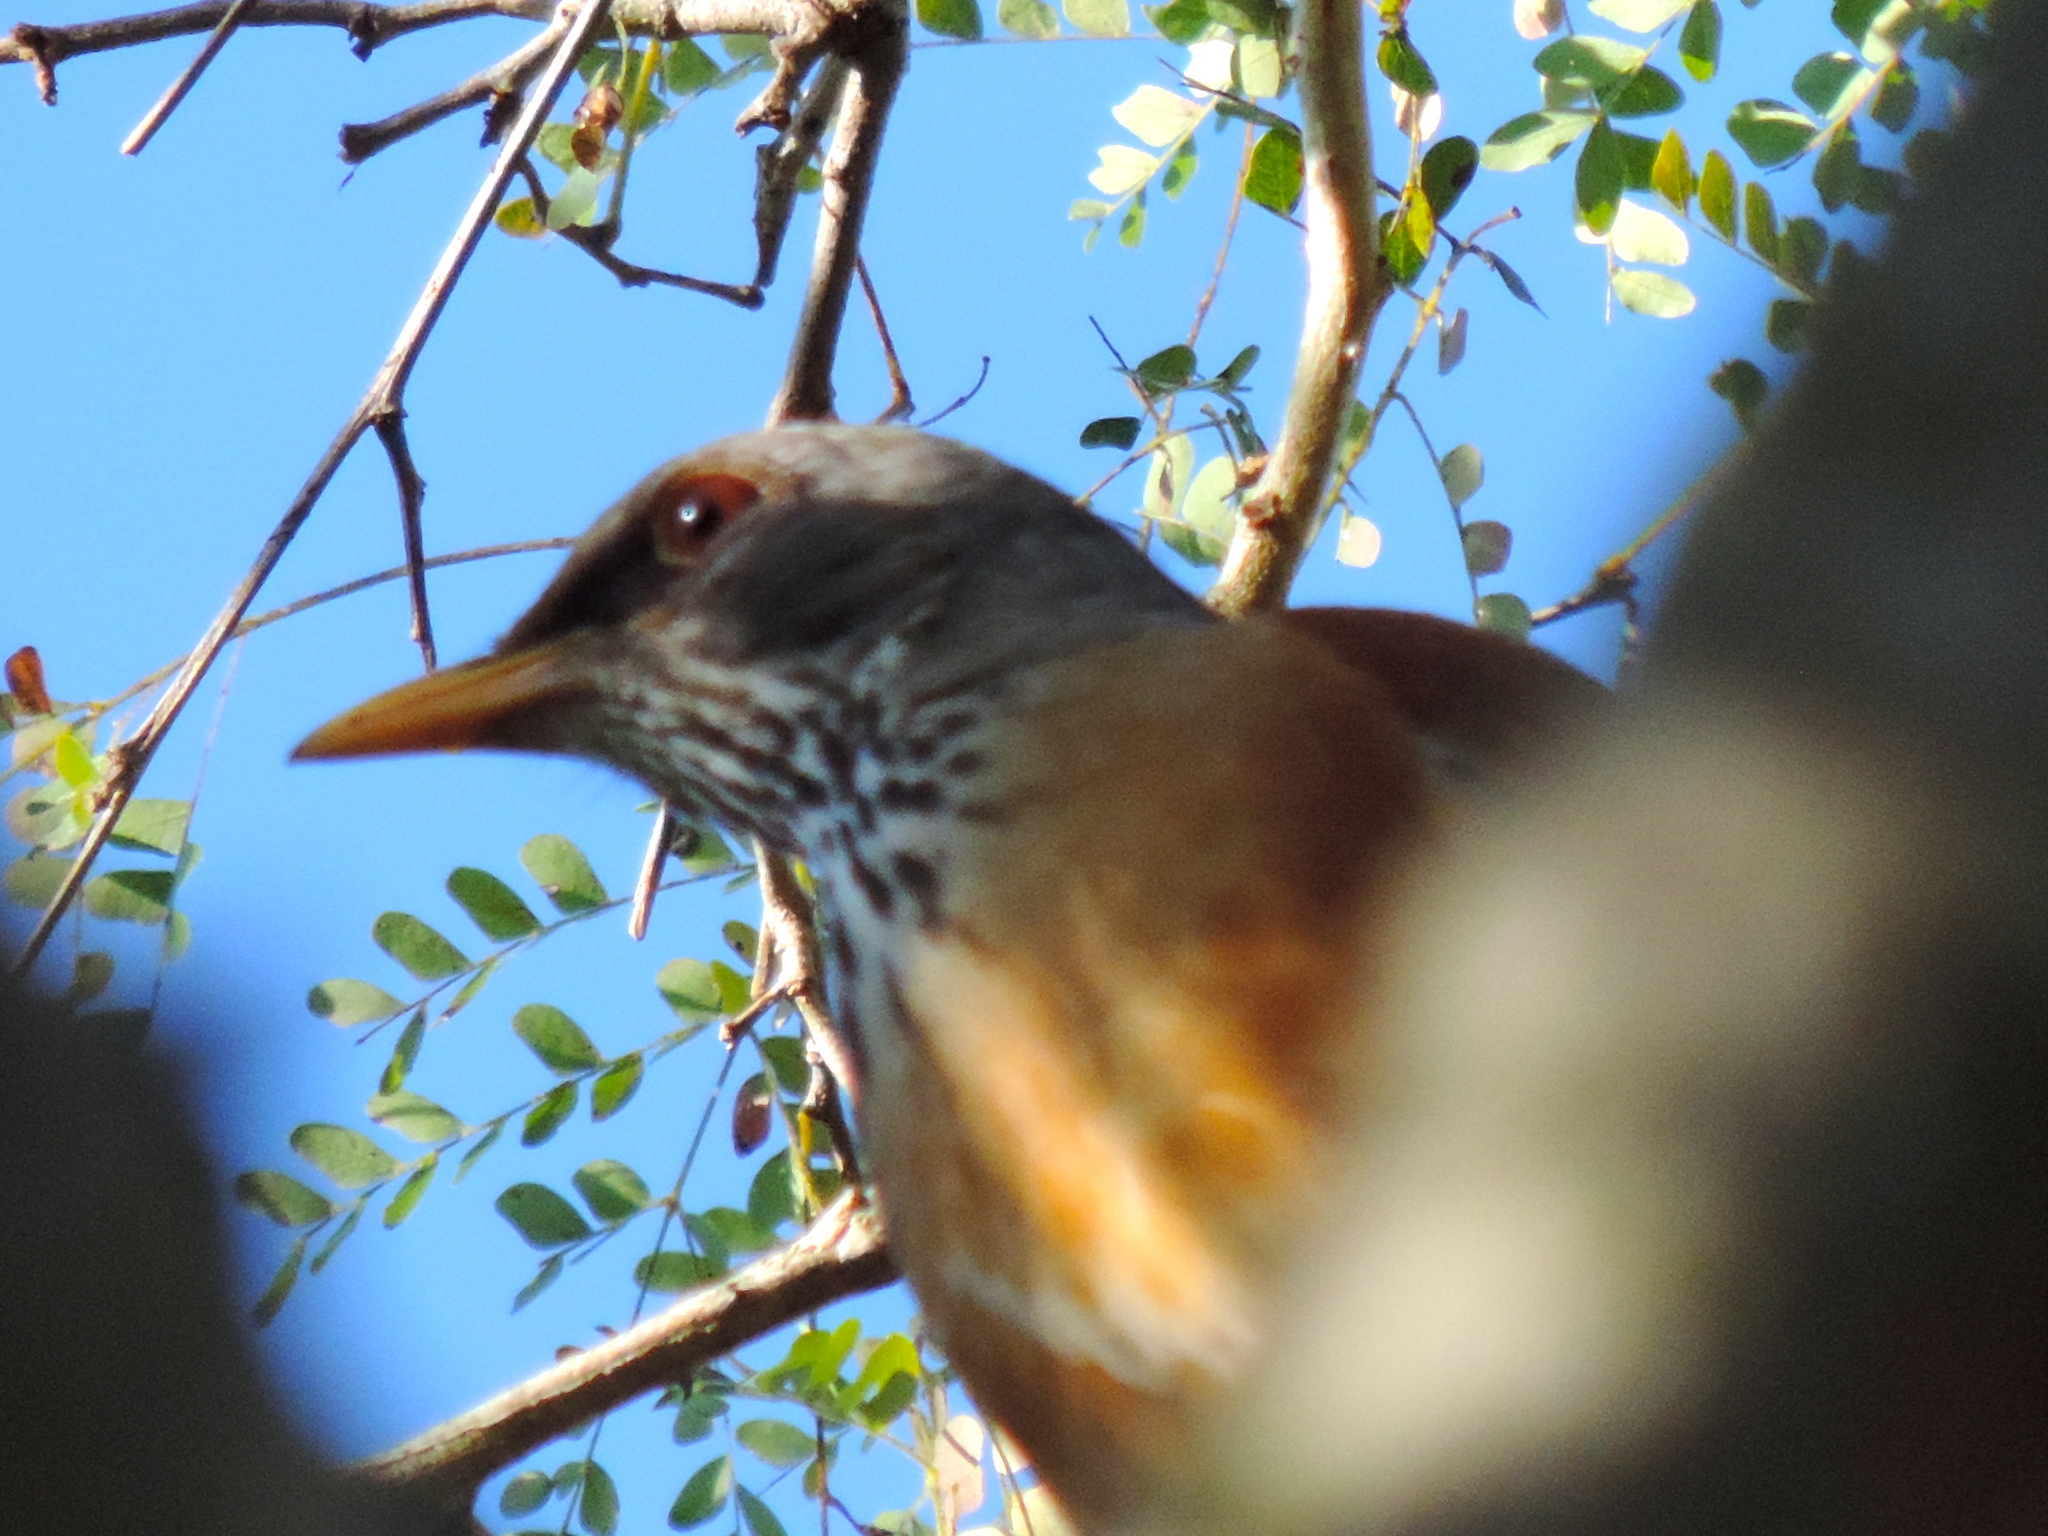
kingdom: Animalia
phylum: Chordata
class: Aves
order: Passeriformes
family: Turdidae
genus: Turdus
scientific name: Turdus rufopalliatus
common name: Rufous-backed robin
